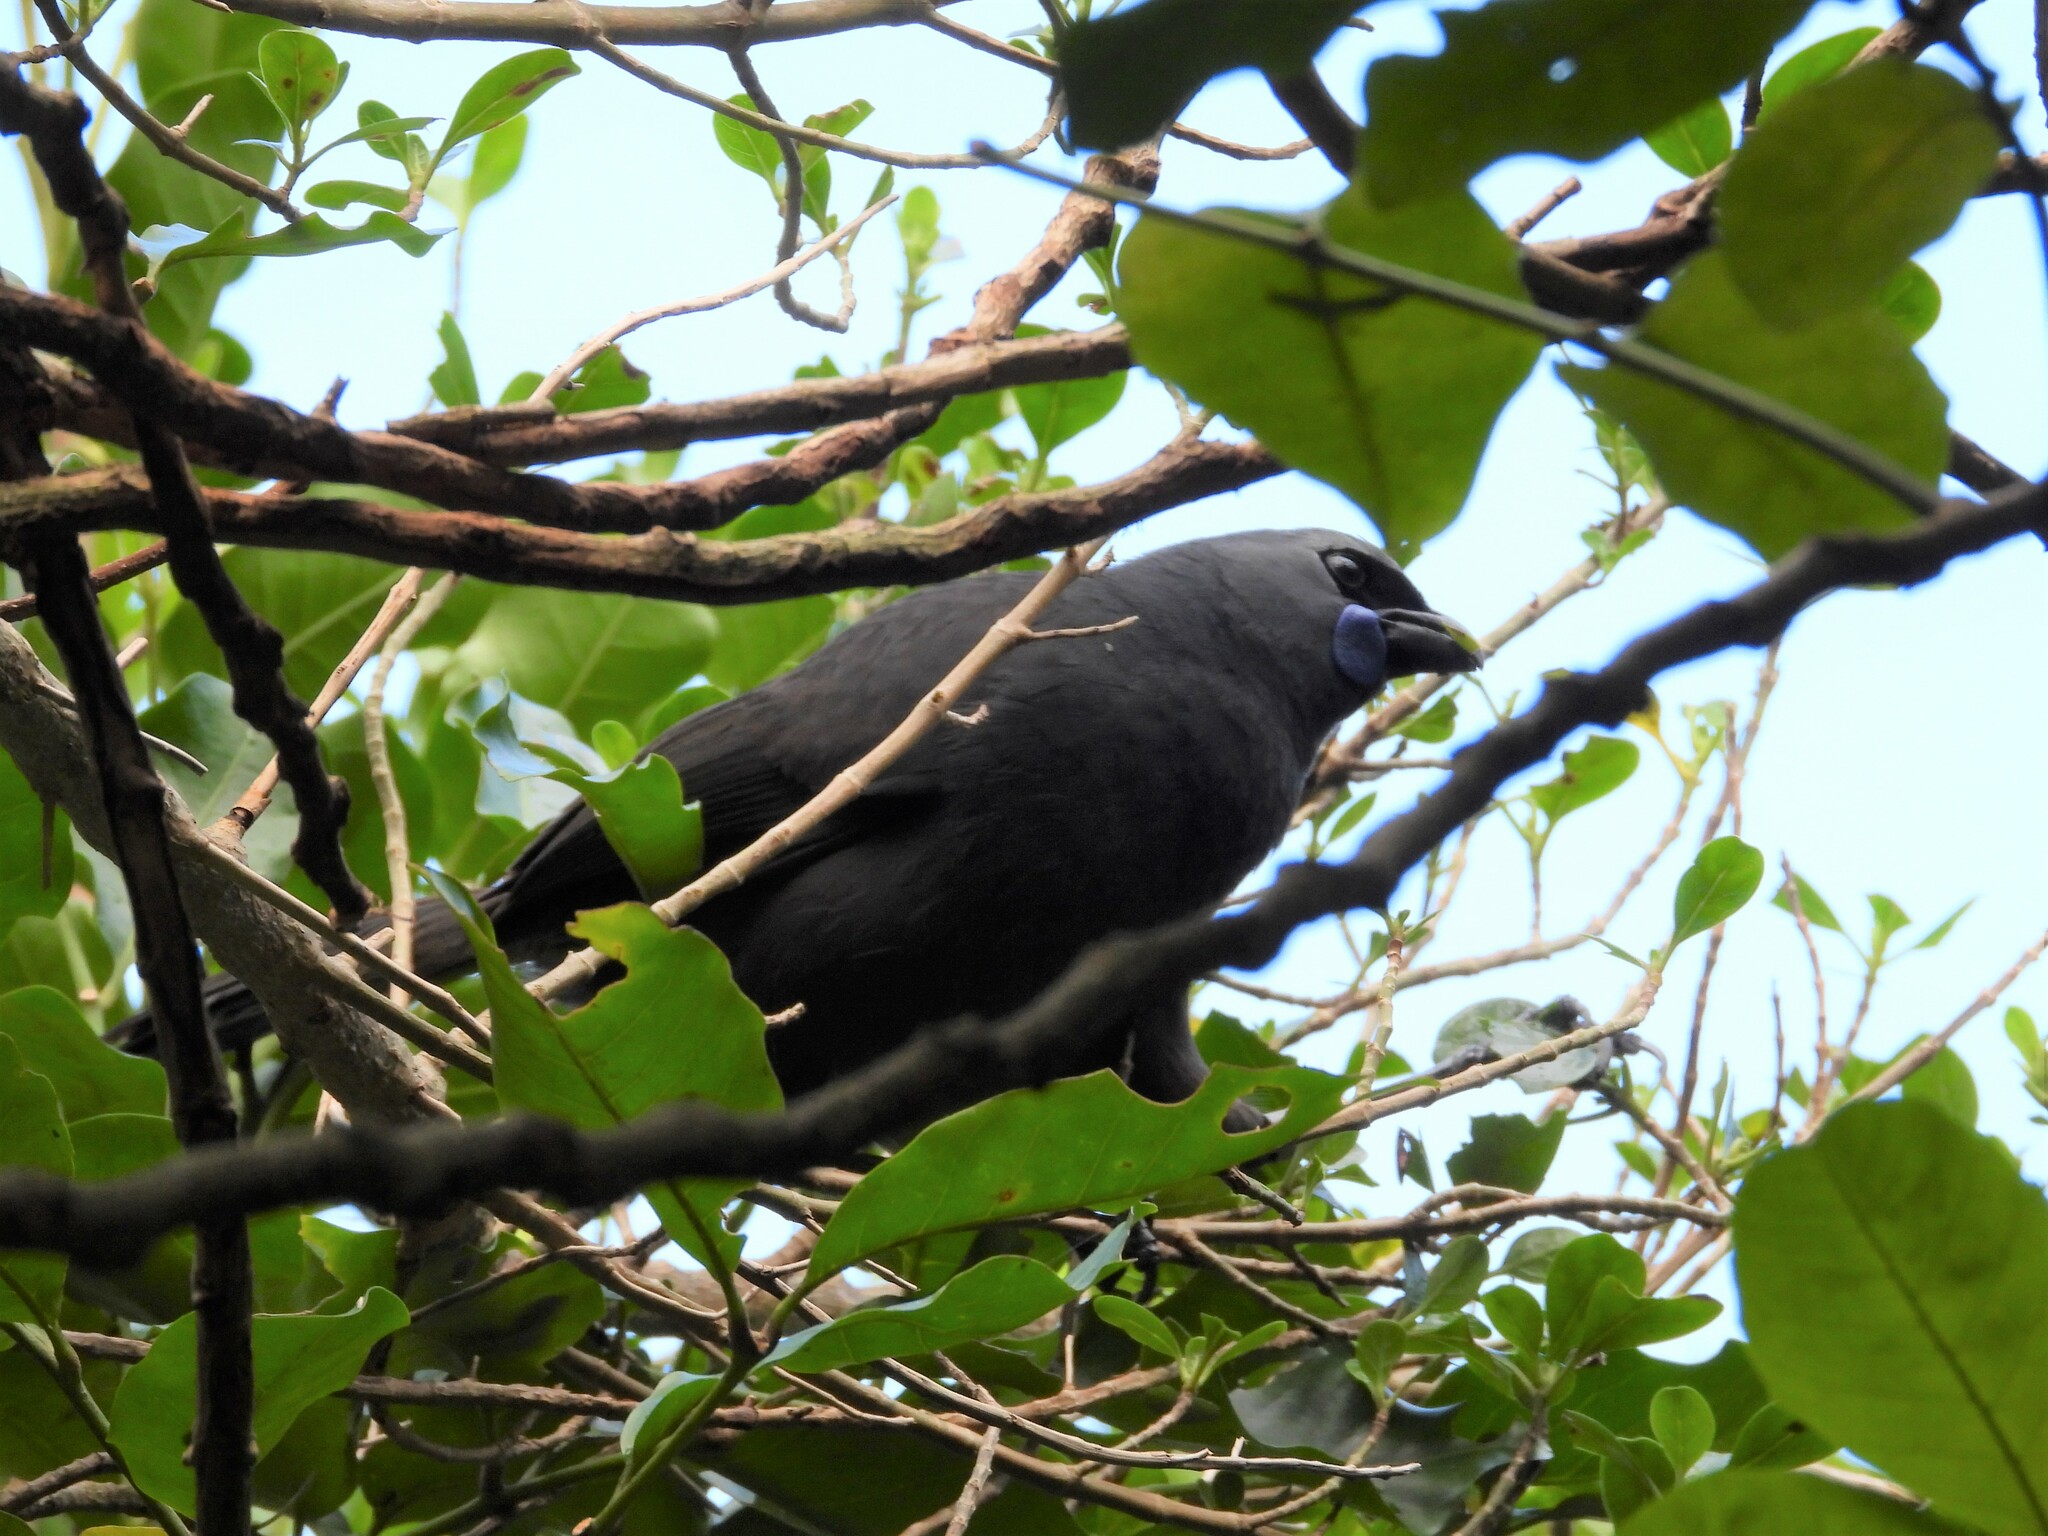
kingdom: Animalia
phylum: Chordata
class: Aves
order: Passeriformes
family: Callaeatidae
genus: Callaeas
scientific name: Callaeas cinereus
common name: South island kokako
